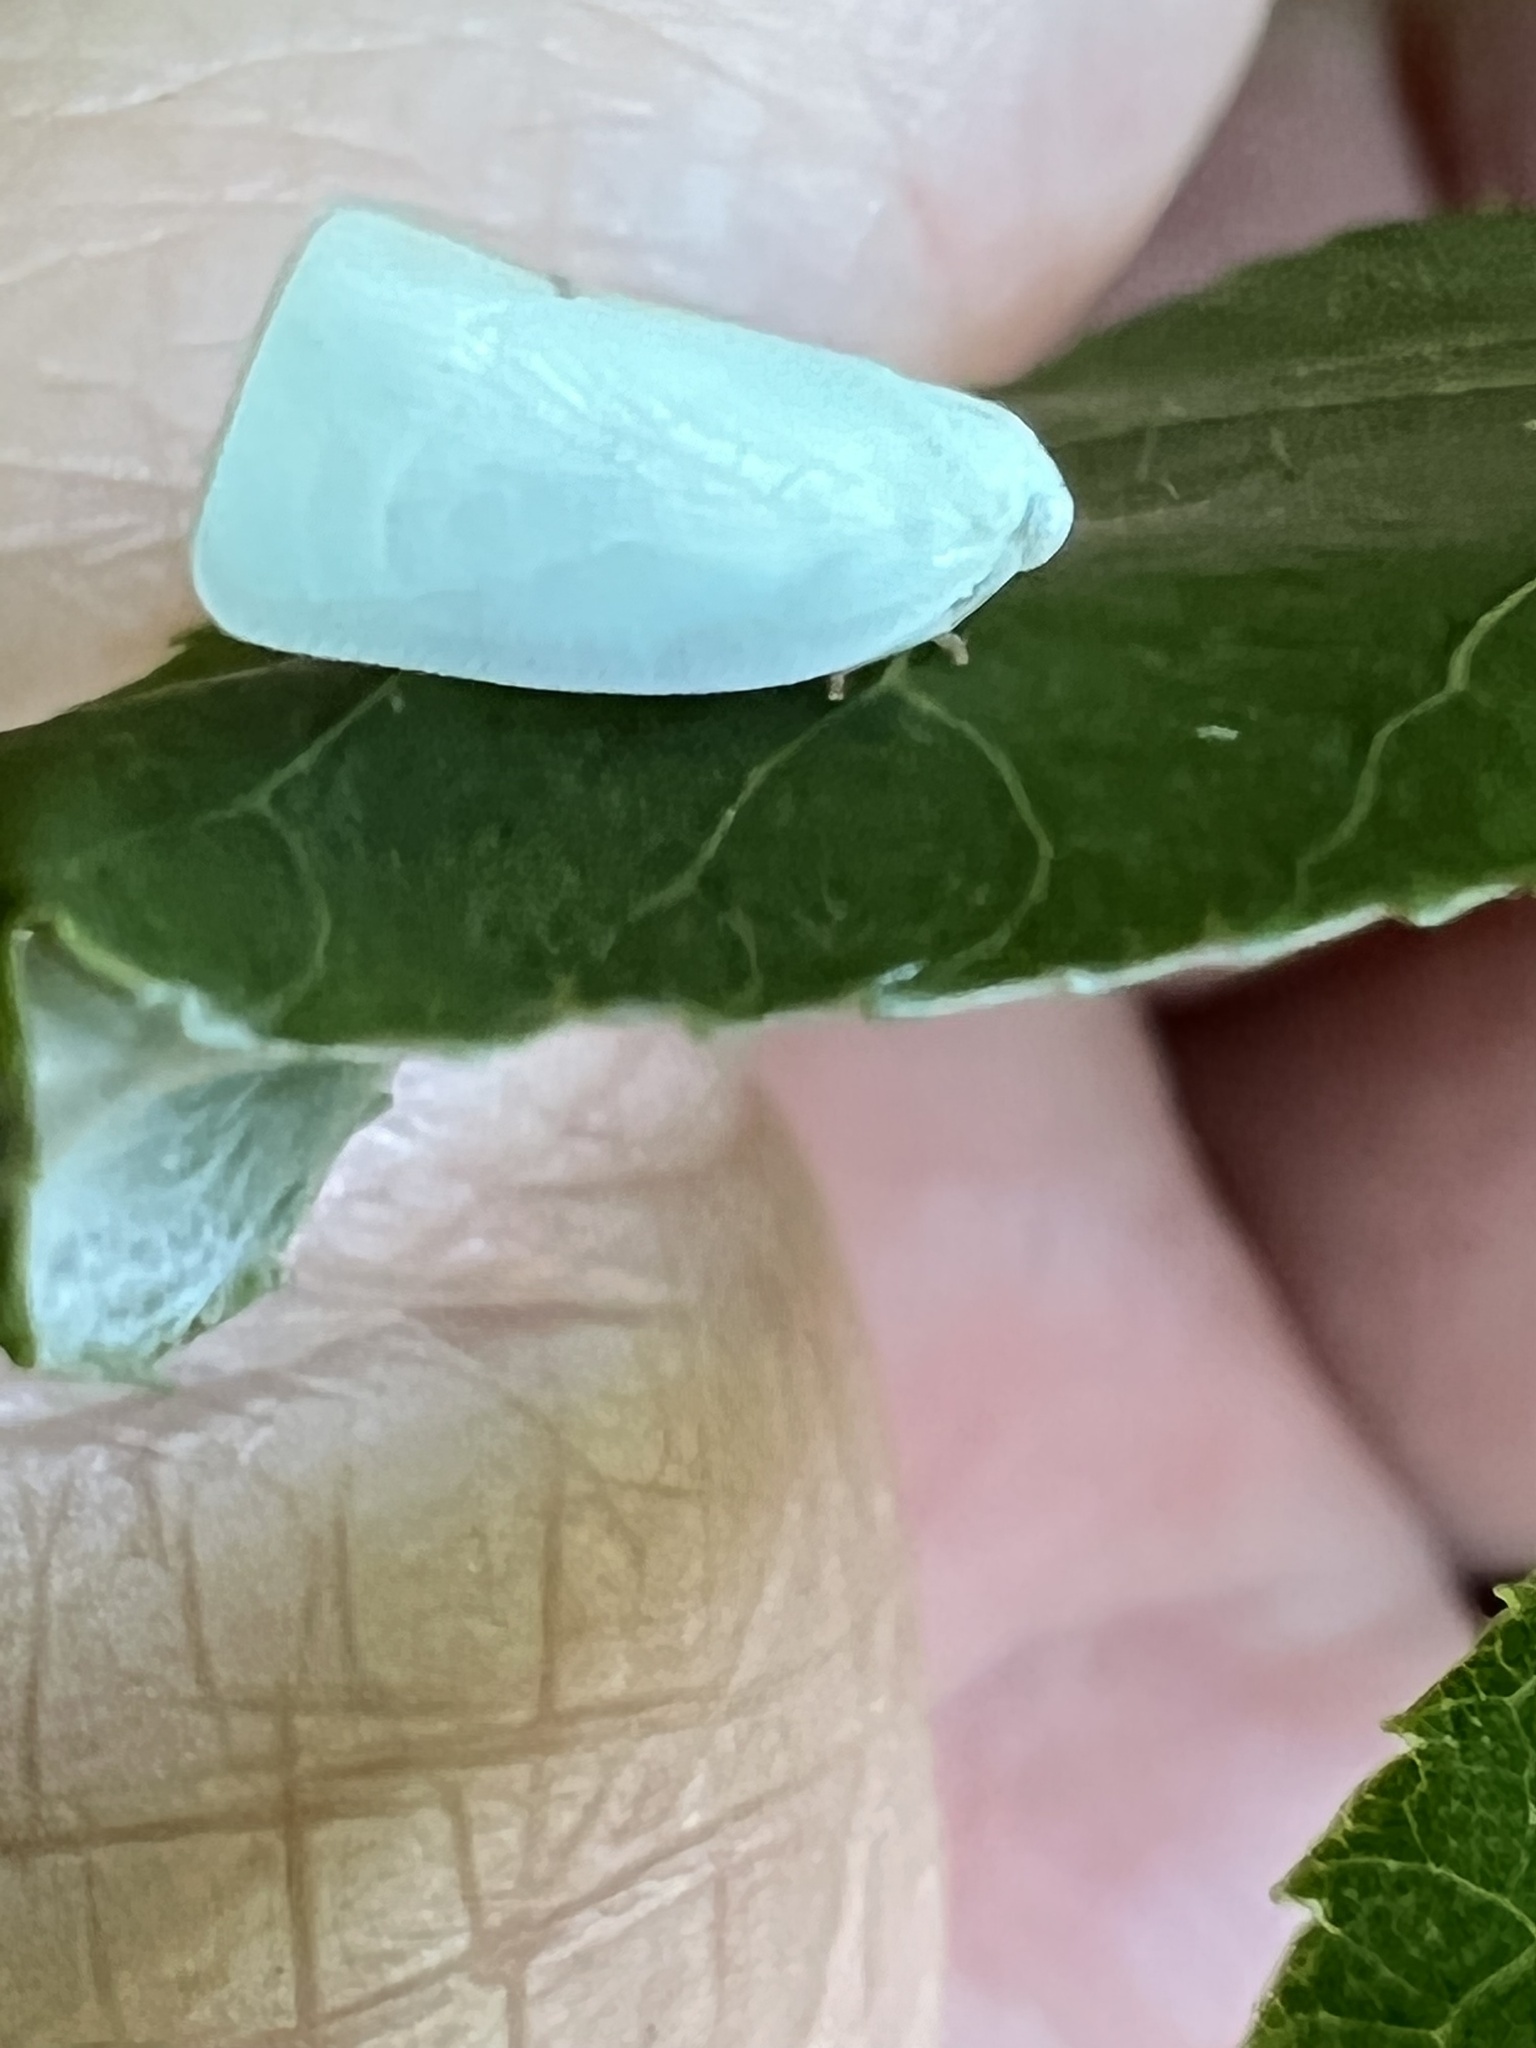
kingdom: Animalia
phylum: Arthropoda
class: Insecta
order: Hemiptera
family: Flatidae
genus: Flatormenis
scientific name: Flatormenis proxima
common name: Northern flatid planthopper
